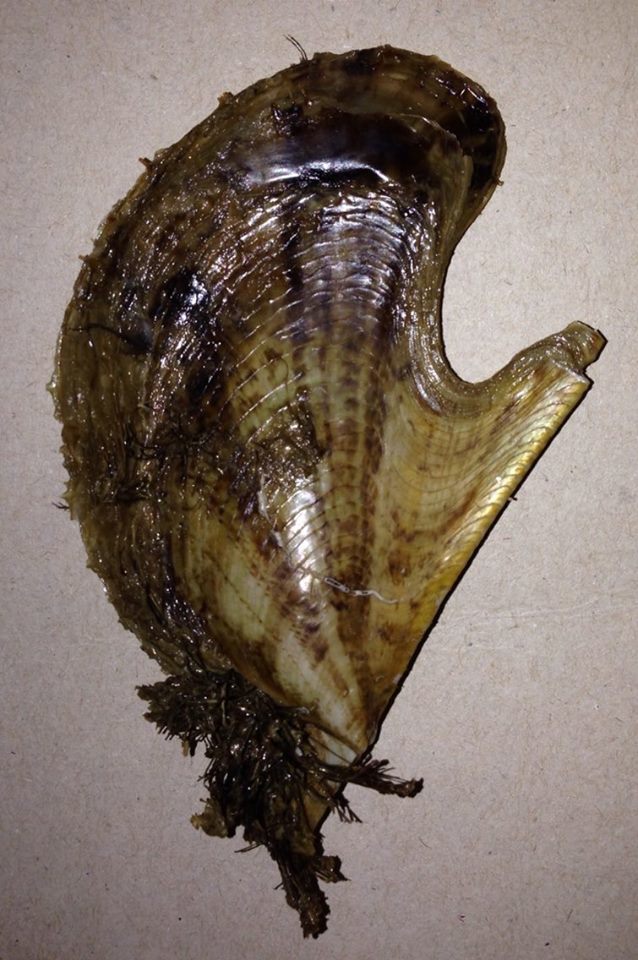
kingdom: Animalia
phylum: Mollusca
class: Bivalvia
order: Ostreida
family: Pteriidae
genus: Pteria
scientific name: Pteria hirundo
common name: Wing shell
